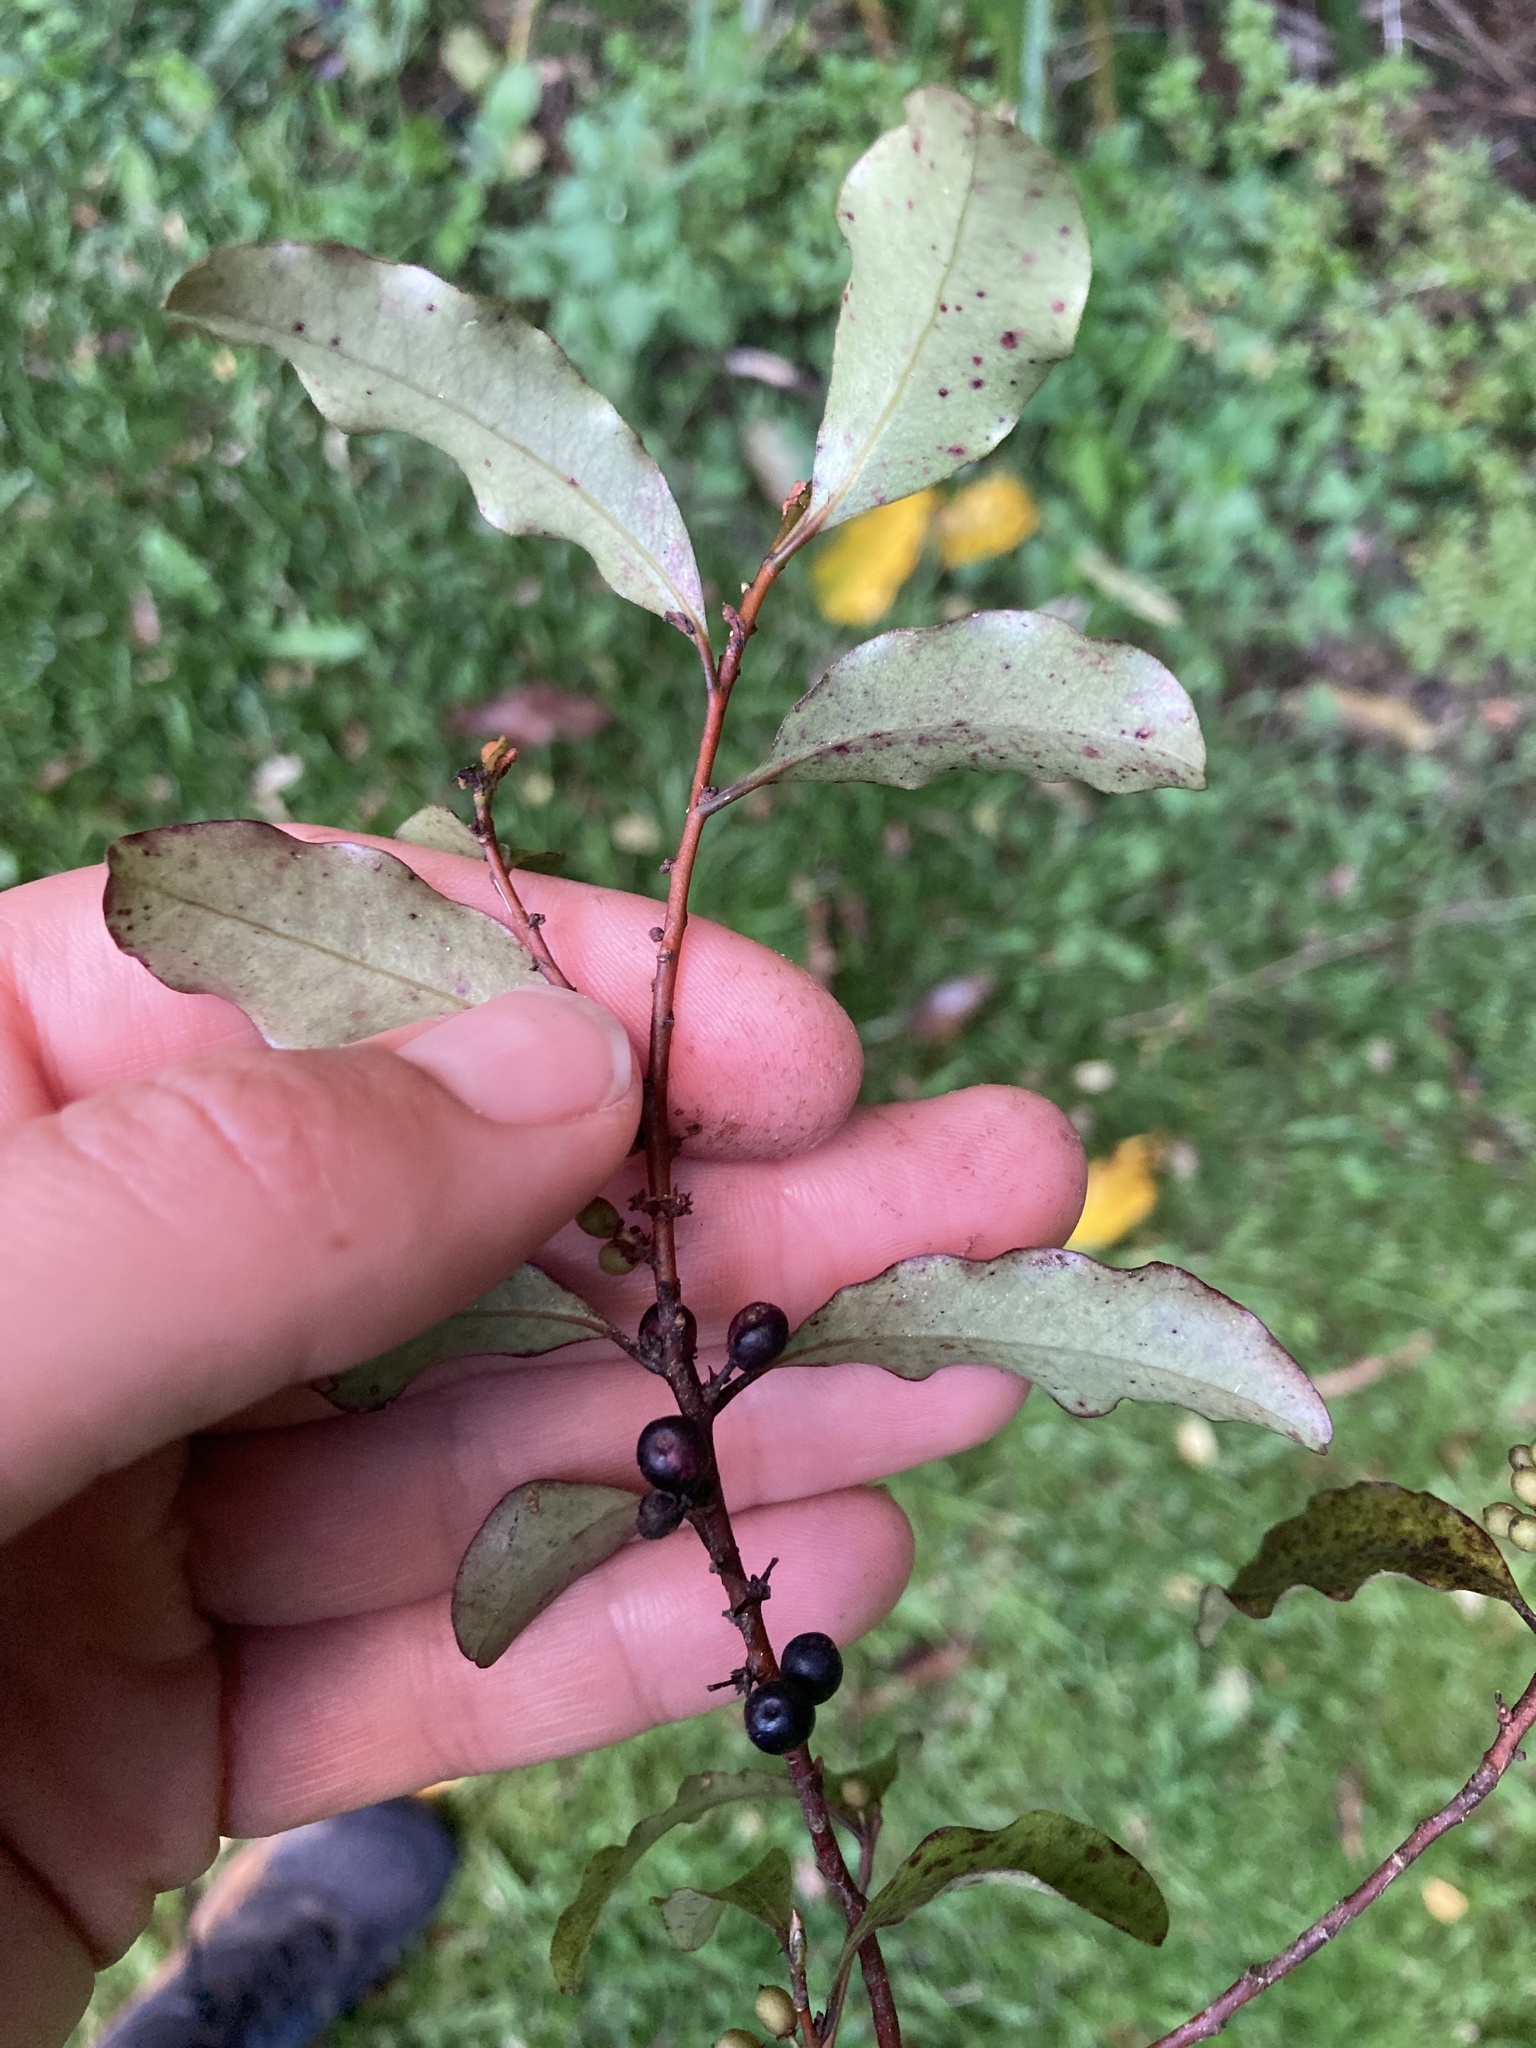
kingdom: Plantae
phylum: Tracheophyta
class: Magnoliopsida
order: Ericales
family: Primulaceae
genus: Myrsine
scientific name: Myrsine australis
